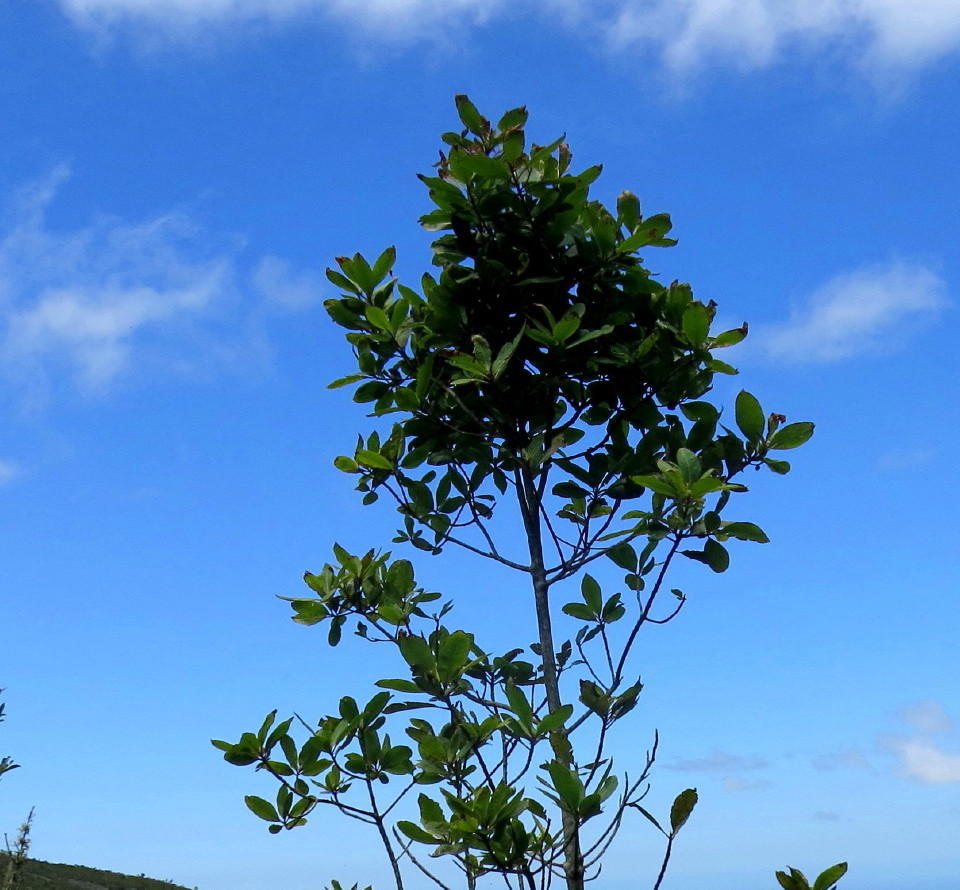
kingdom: Plantae
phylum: Tracheophyta
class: Magnoliopsida
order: Ericales
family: Primulaceae
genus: Myrsine
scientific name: Myrsine melanophloeos
